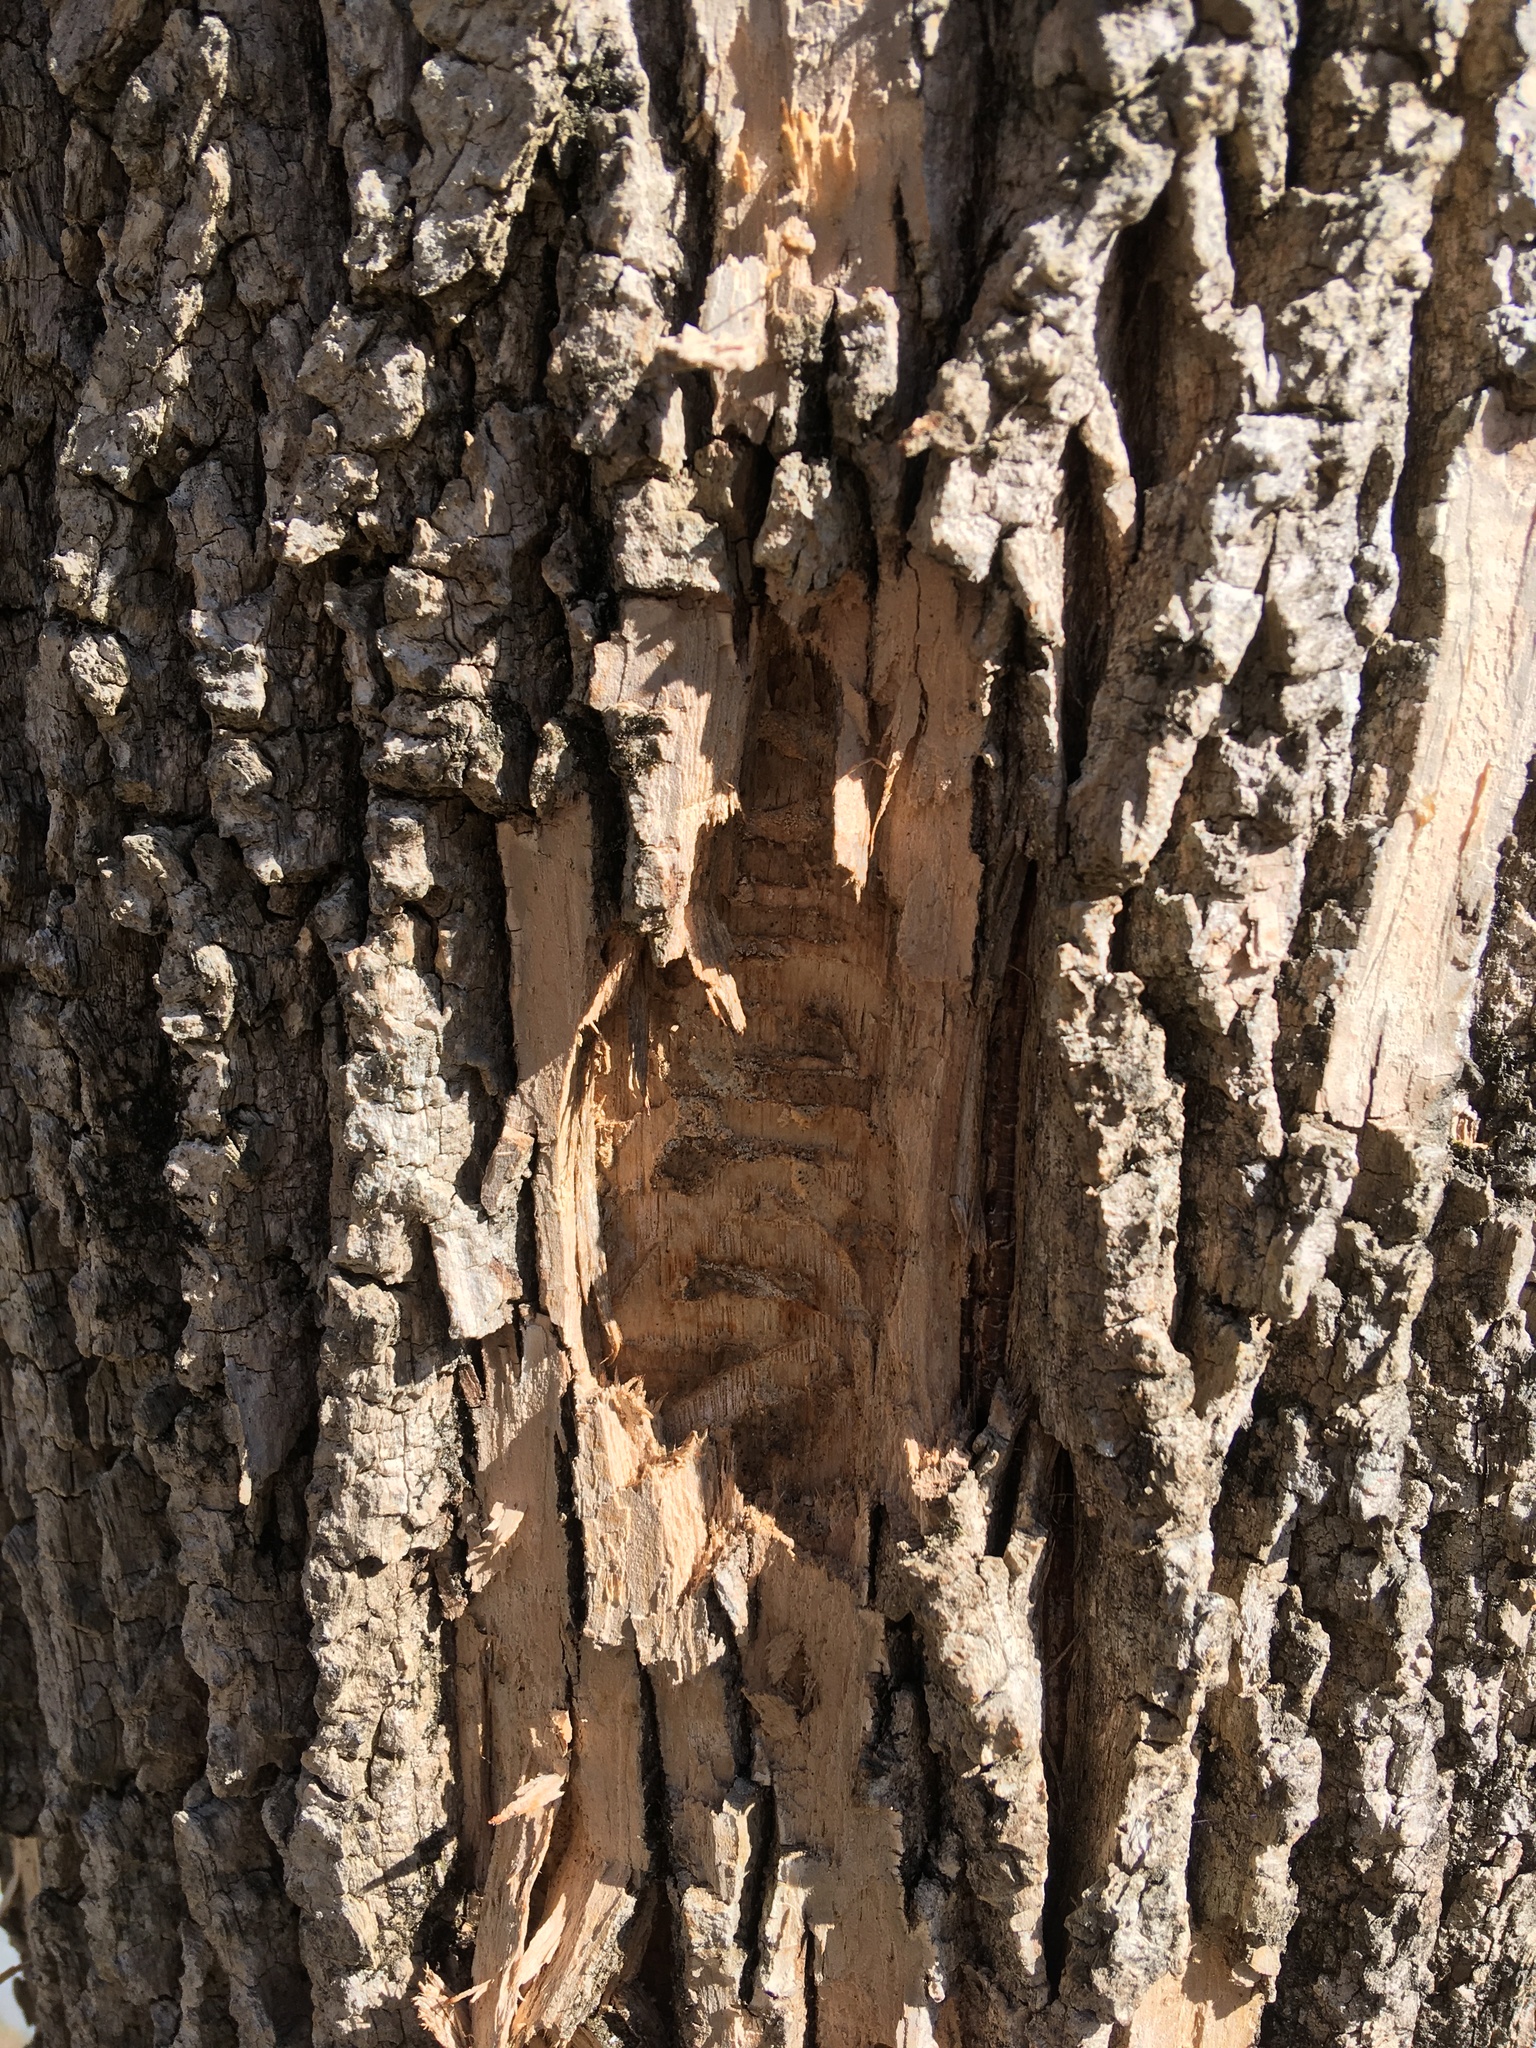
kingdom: Animalia
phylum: Arthropoda
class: Insecta
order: Coleoptera
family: Buprestidae
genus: Agrilus
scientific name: Agrilus planipennis
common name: Emerald ash borer
